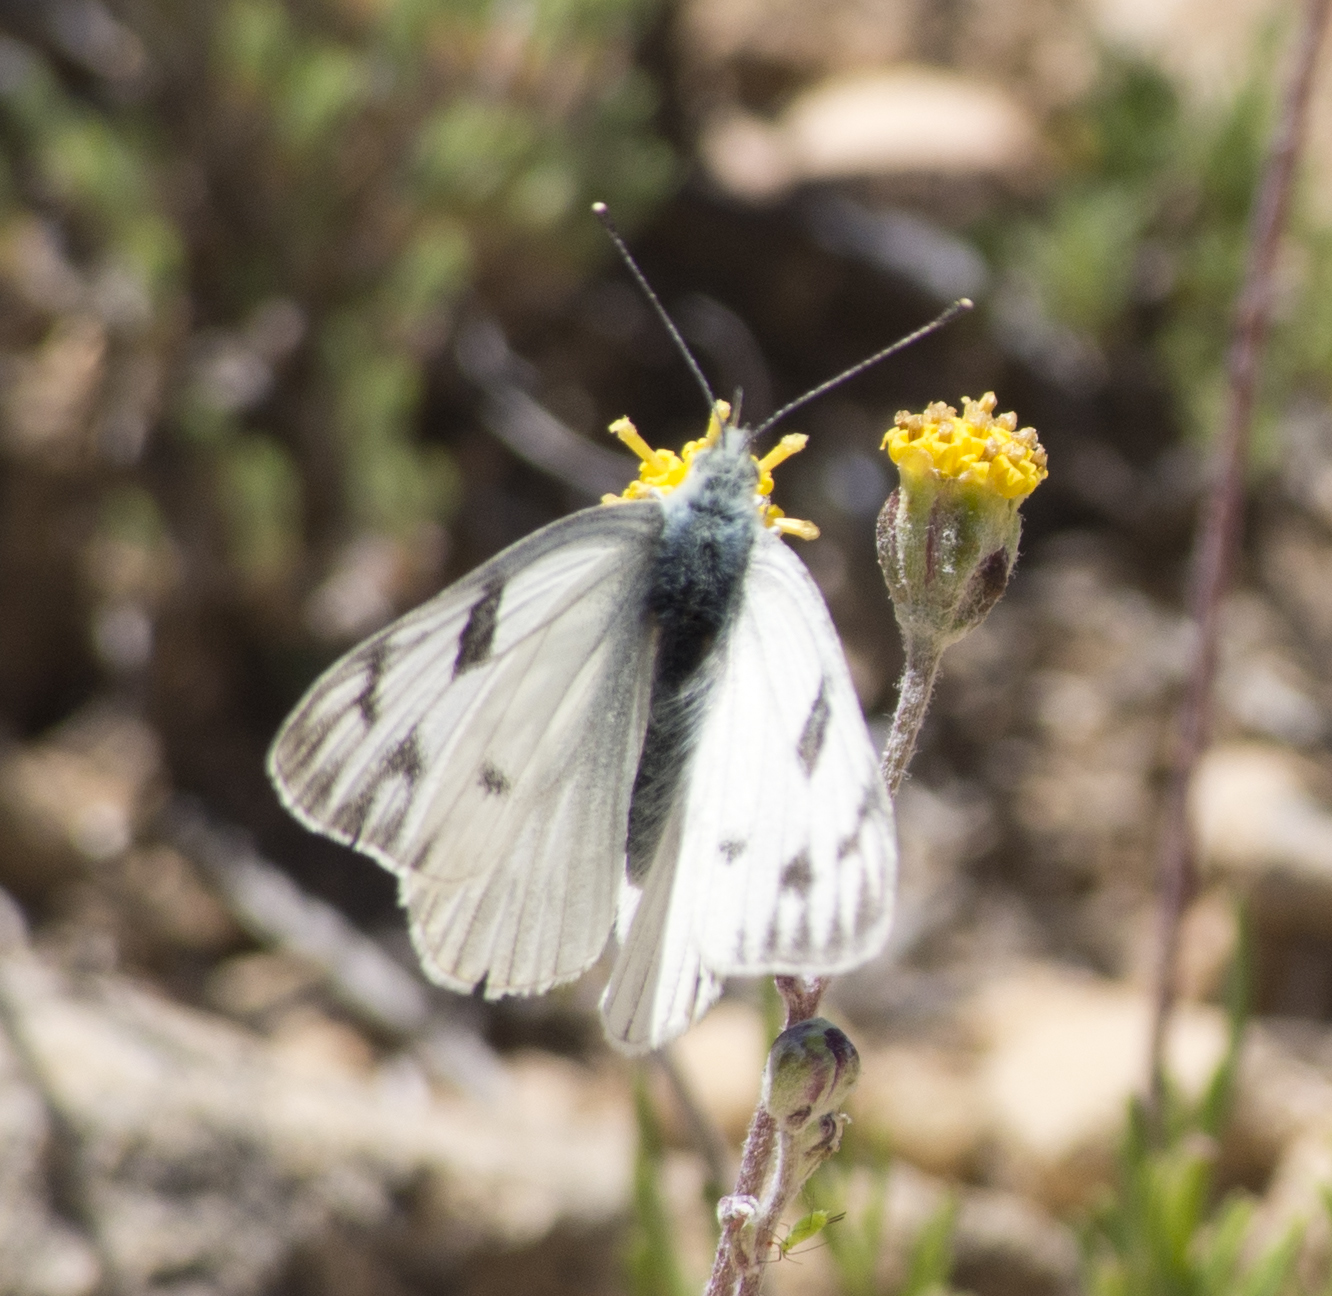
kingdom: Animalia
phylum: Arthropoda
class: Insecta
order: Lepidoptera
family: Pieridae
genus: Pontia
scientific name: Pontia protodice
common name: Checkered white
